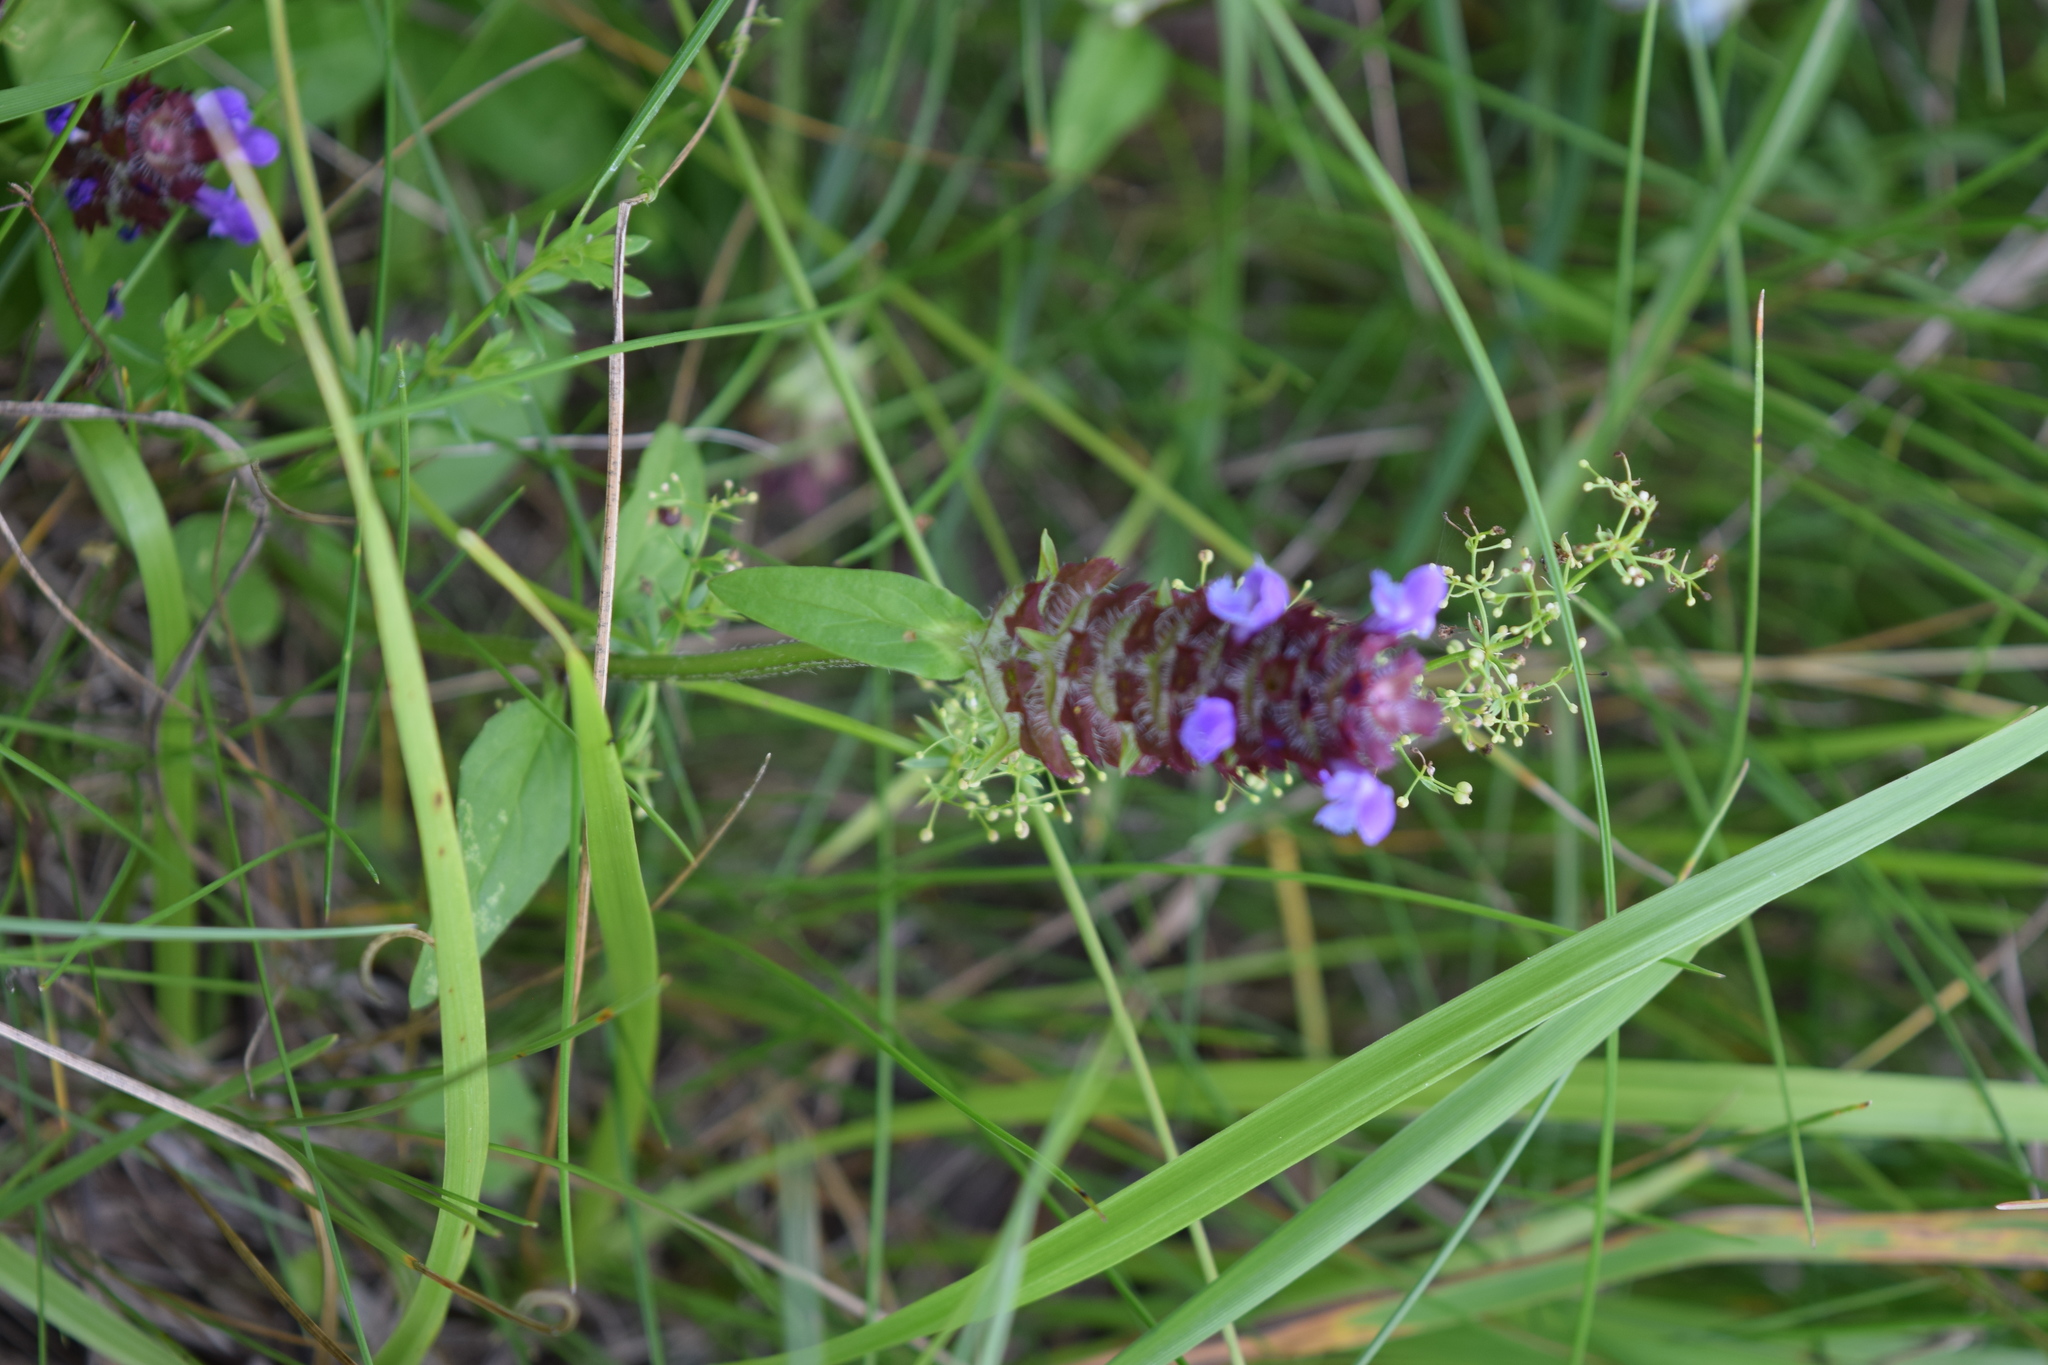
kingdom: Plantae
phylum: Tracheophyta
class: Magnoliopsida
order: Lamiales
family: Lamiaceae
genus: Prunella
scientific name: Prunella vulgaris
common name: Heal-all
